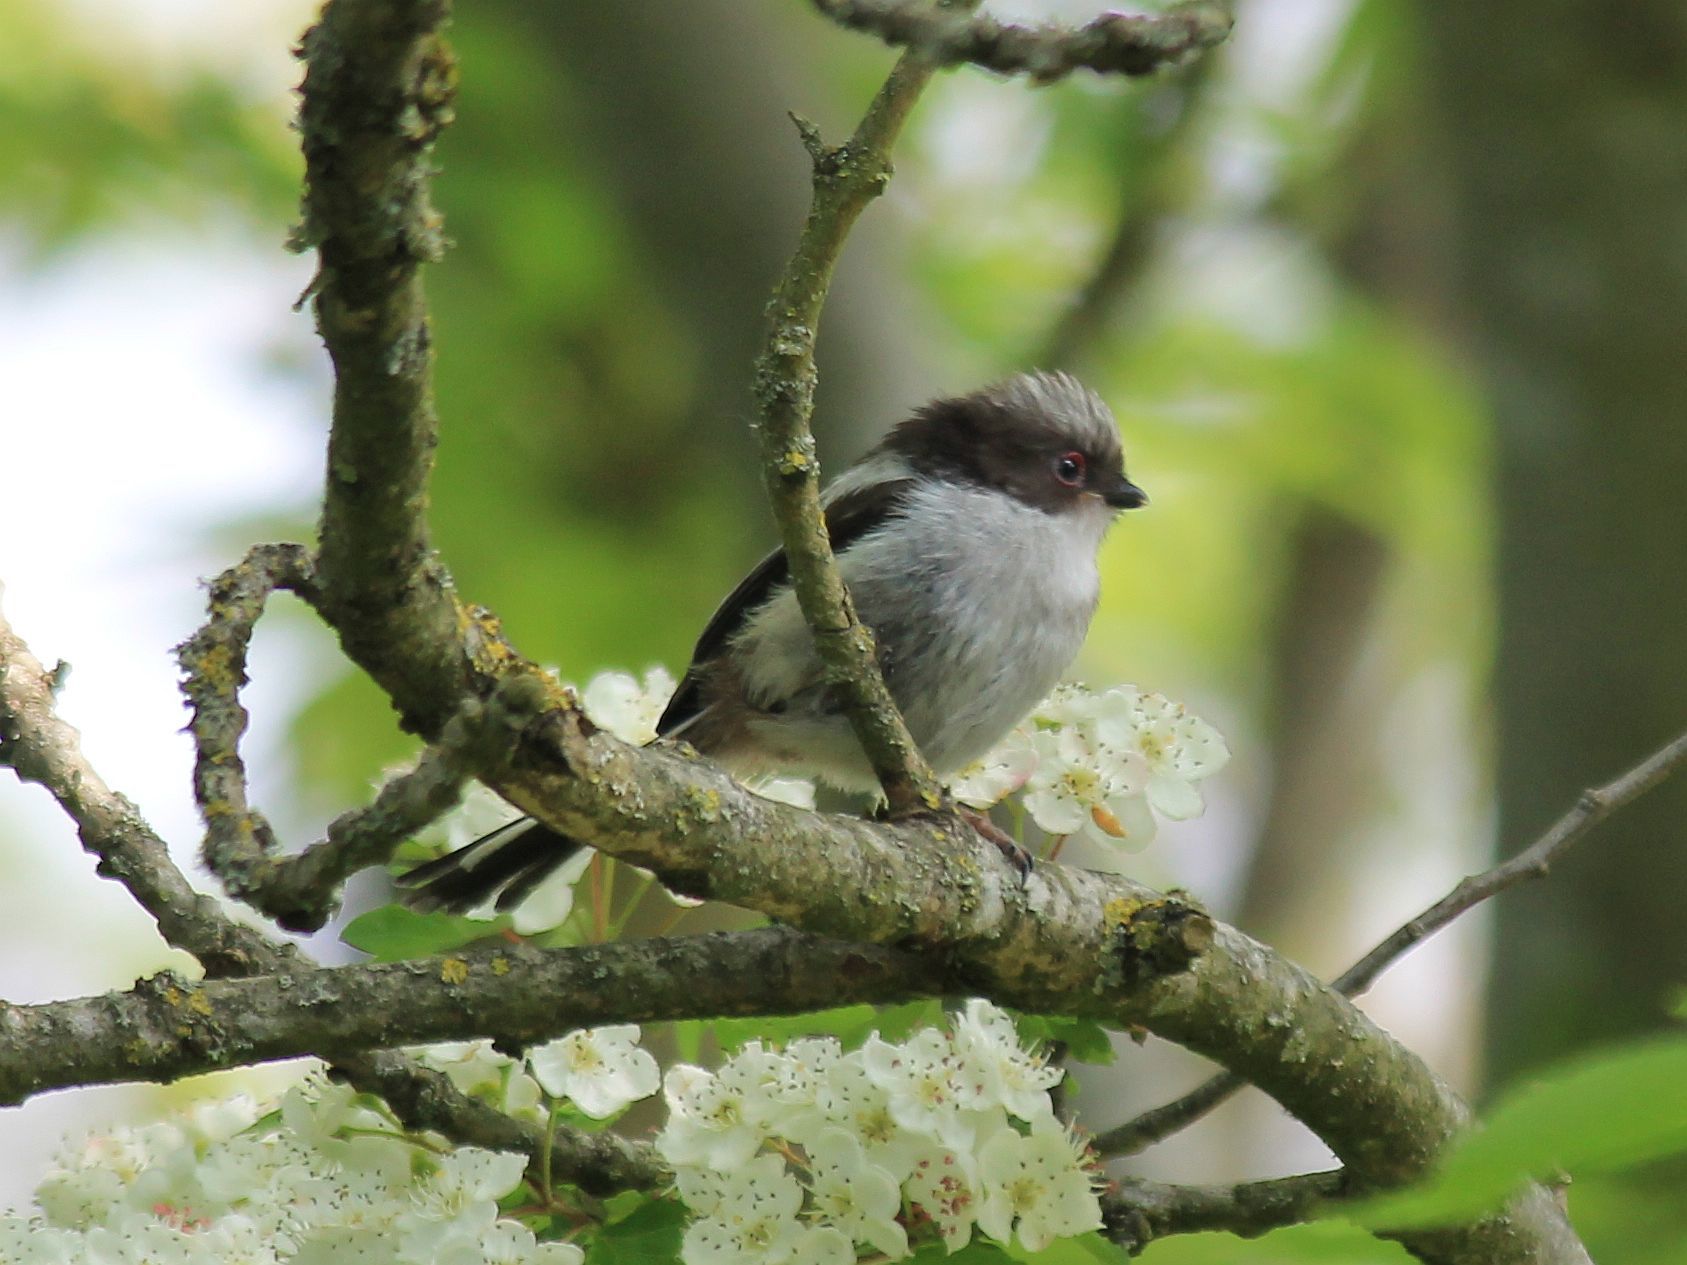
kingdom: Animalia
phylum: Chordata
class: Aves
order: Passeriformes
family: Aegithalidae
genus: Aegithalos
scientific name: Aegithalos caudatus
